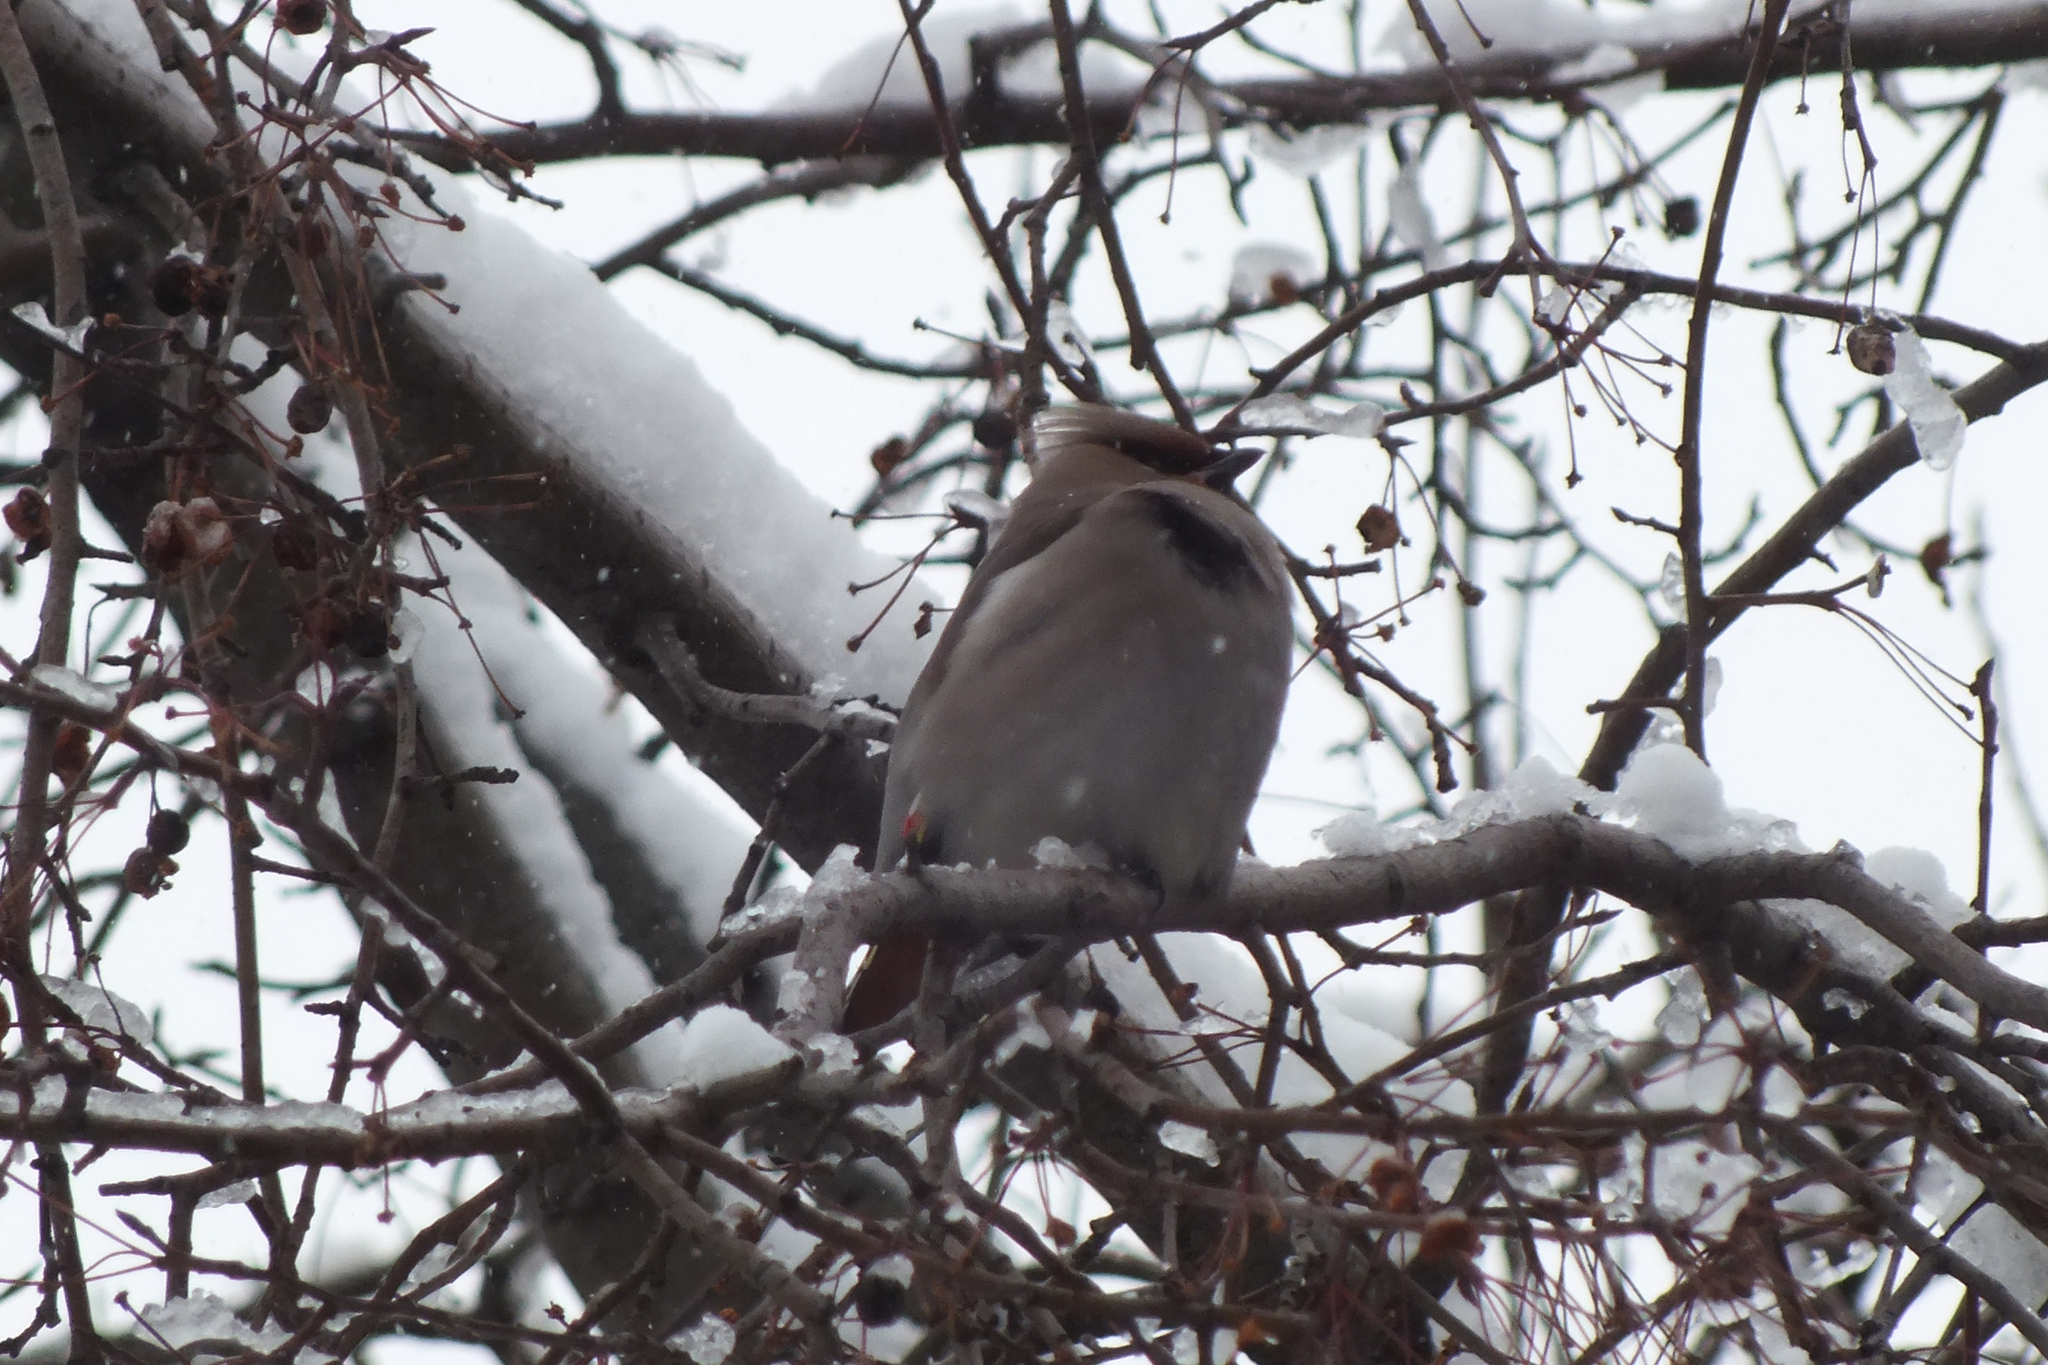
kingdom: Animalia
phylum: Chordata
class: Aves
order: Passeriformes
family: Bombycillidae
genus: Bombycilla
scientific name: Bombycilla garrulus
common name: Bohemian waxwing
